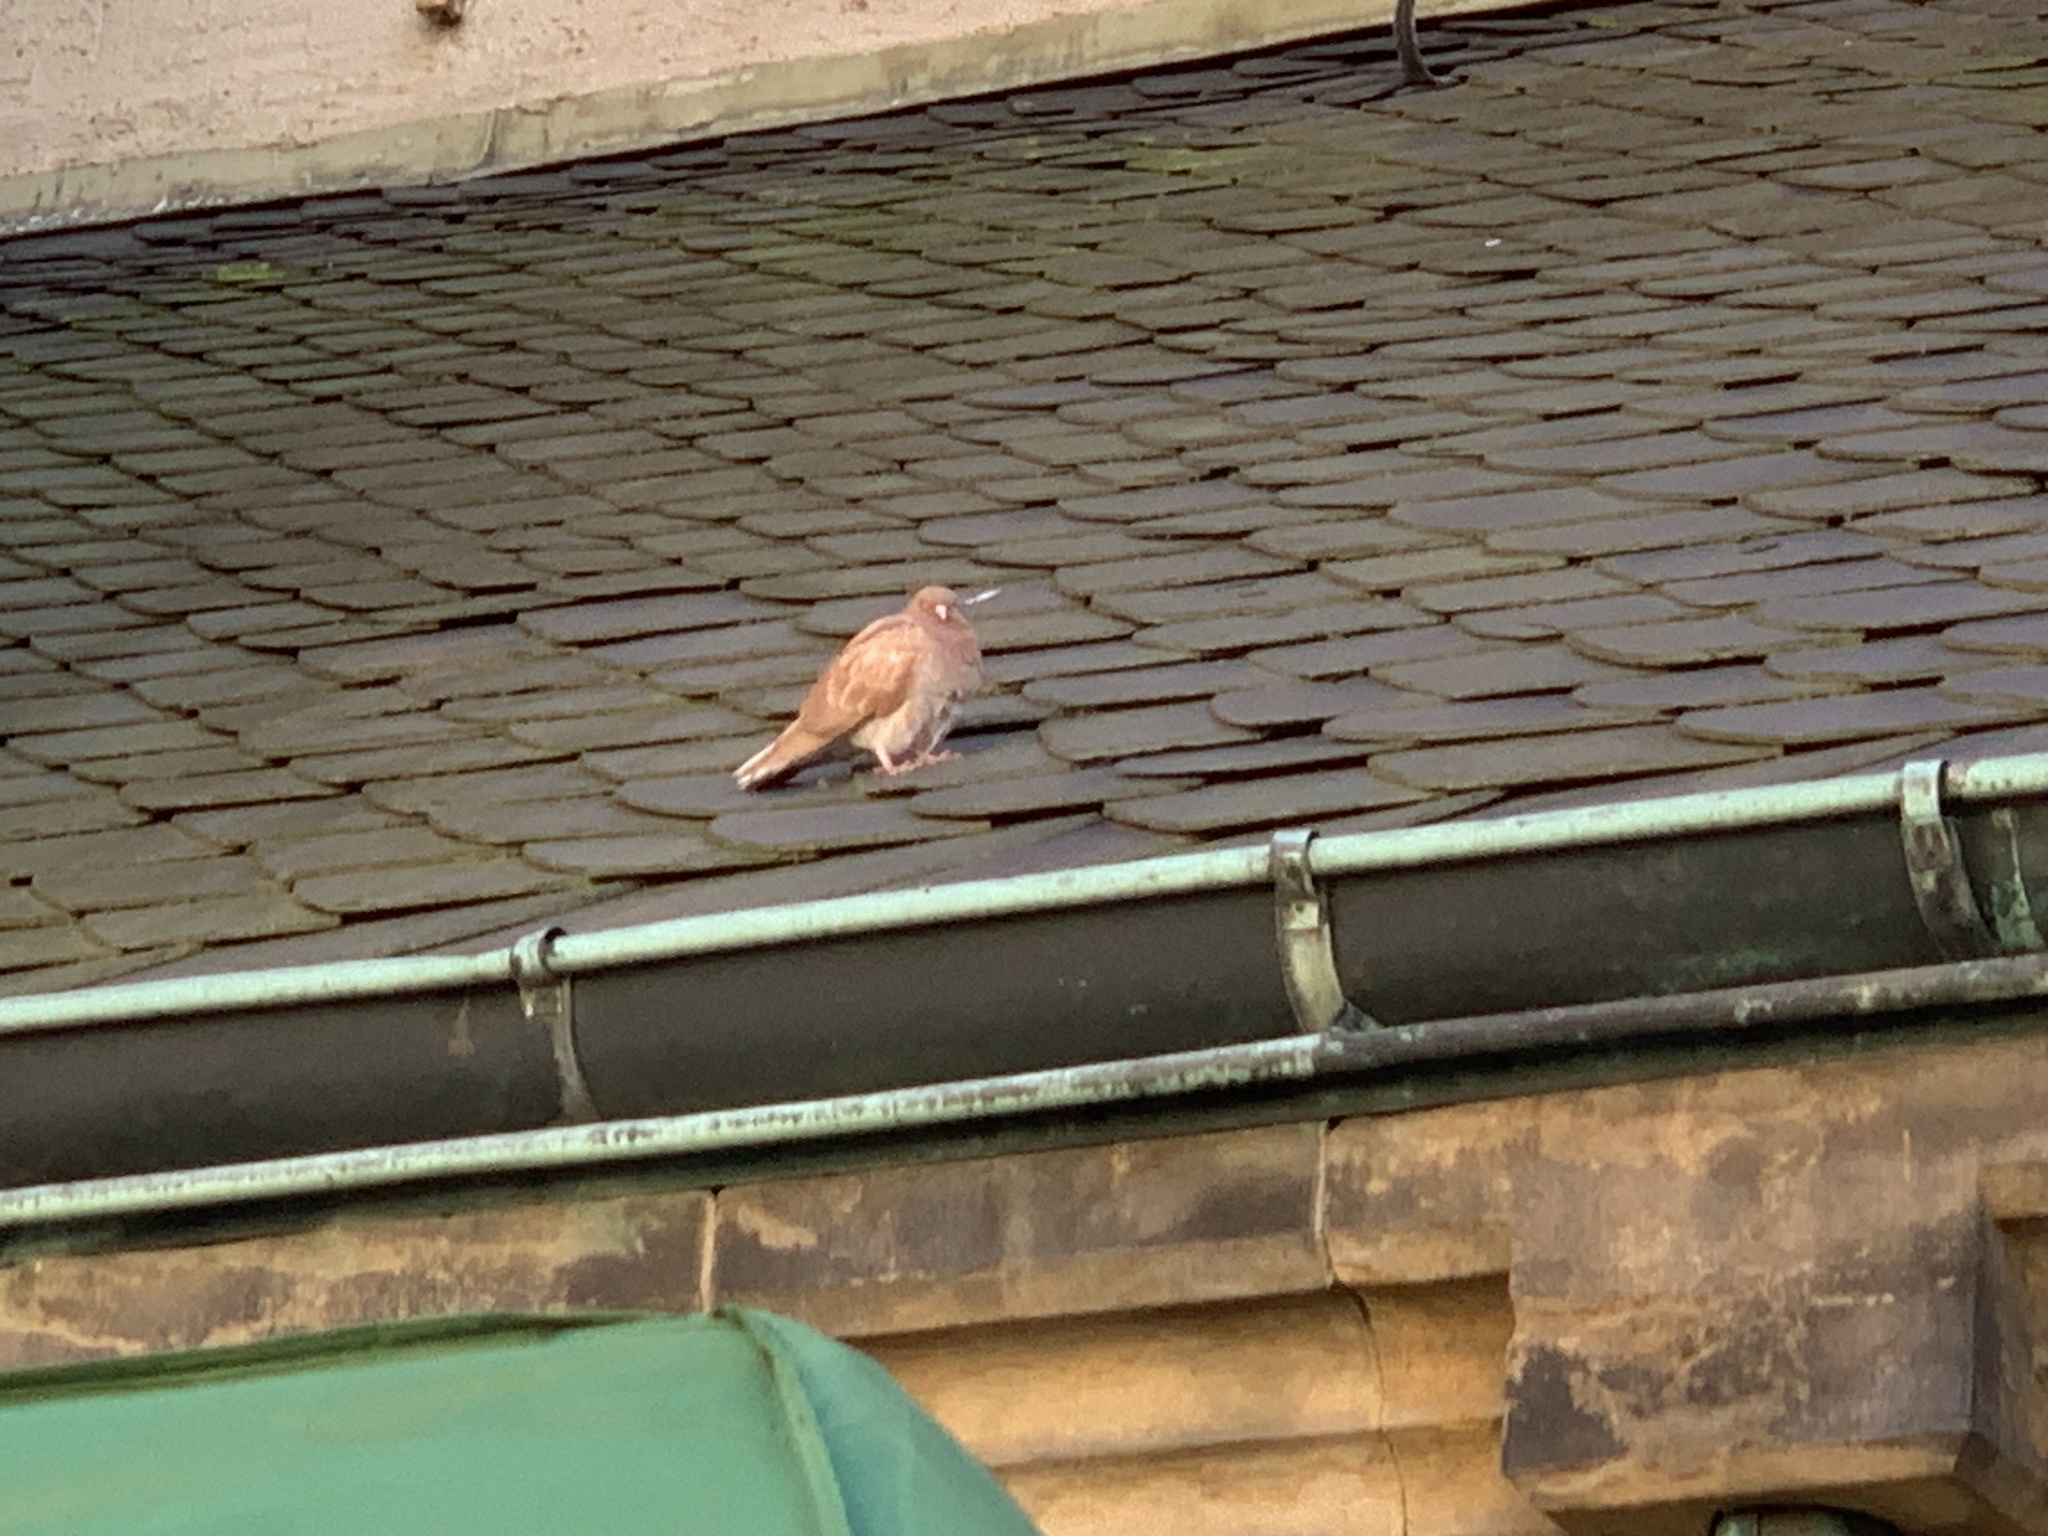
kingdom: Animalia
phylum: Chordata
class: Aves
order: Columbiformes
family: Columbidae
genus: Columba
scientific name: Columba livia
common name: Rock pigeon
